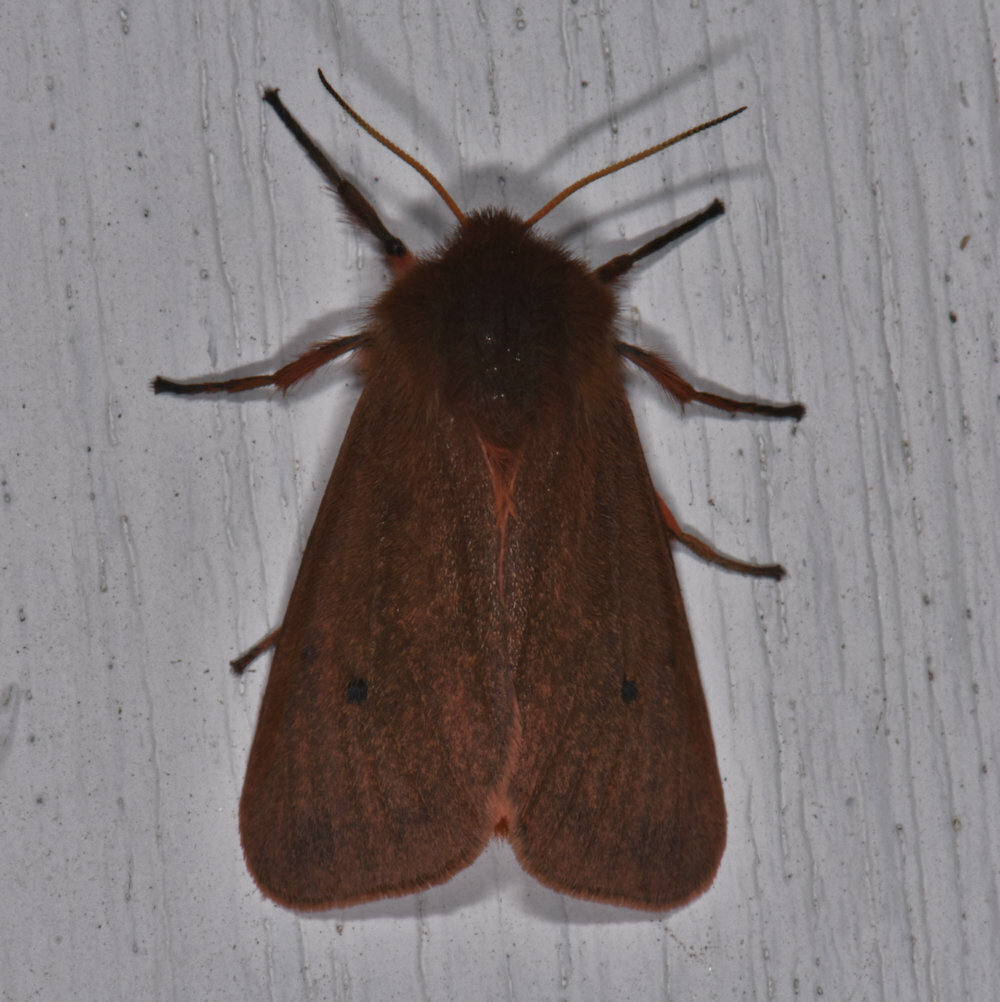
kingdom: Animalia
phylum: Arthropoda
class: Insecta
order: Lepidoptera
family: Erebidae
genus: Phragmatobia
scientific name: Phragmatobia fuliginosa
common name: Ruby tiger
